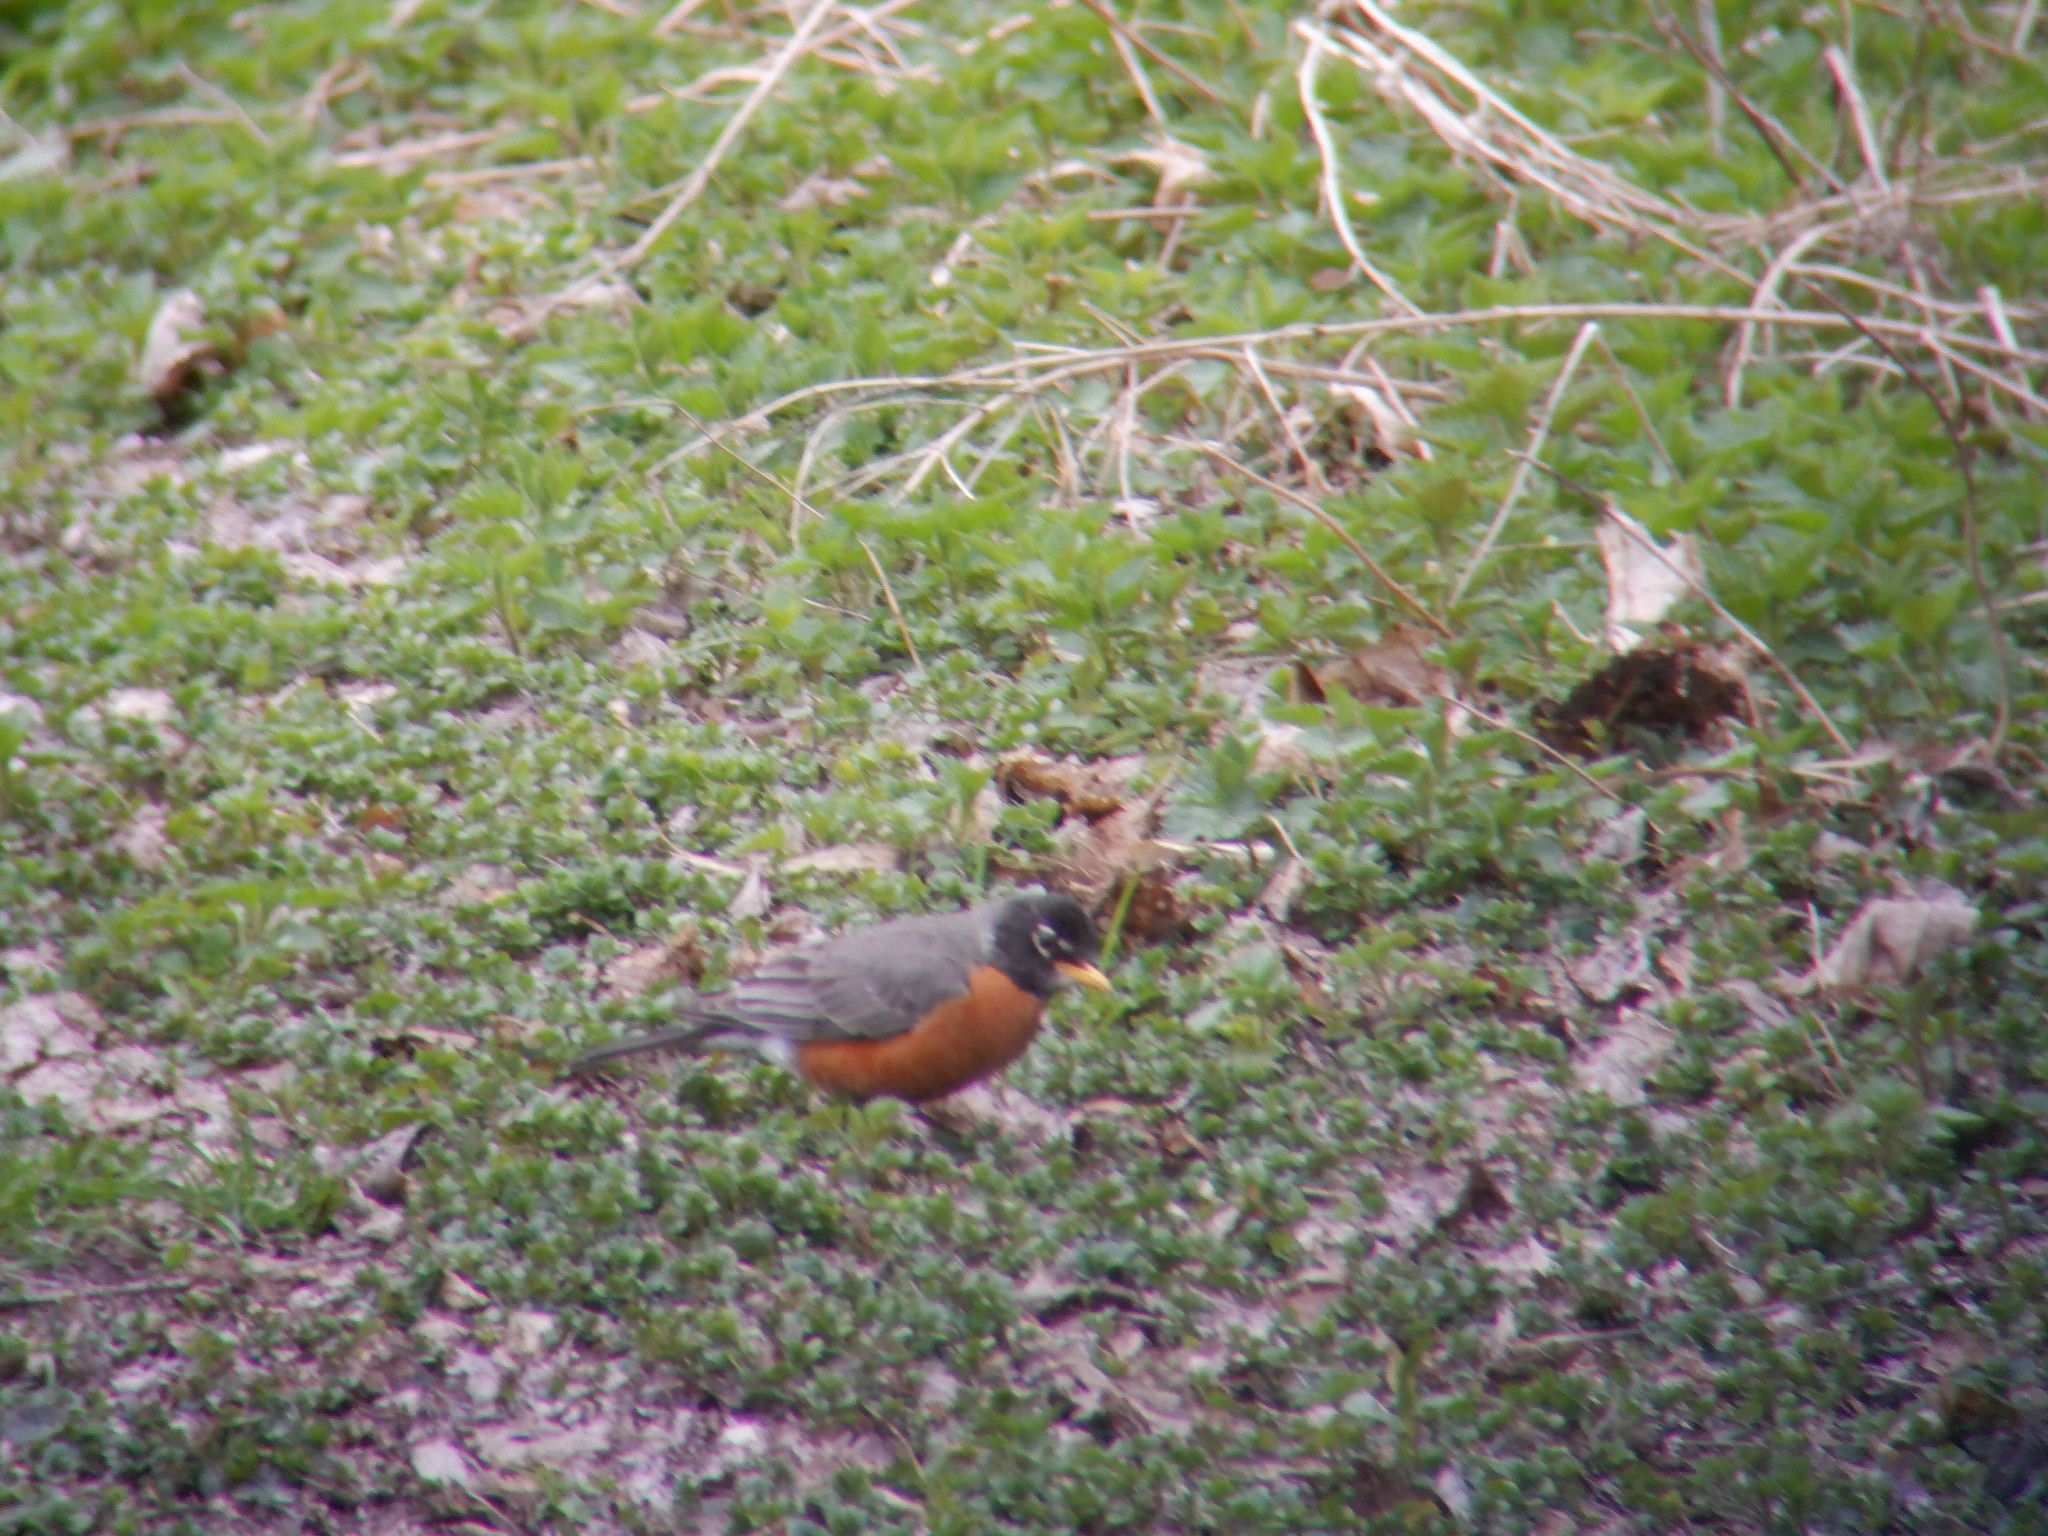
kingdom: Animalia
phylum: Chordata
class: Aves
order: Passeriformes
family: Turdidae
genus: Turdus
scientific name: Turdus migratorius
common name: American robin
